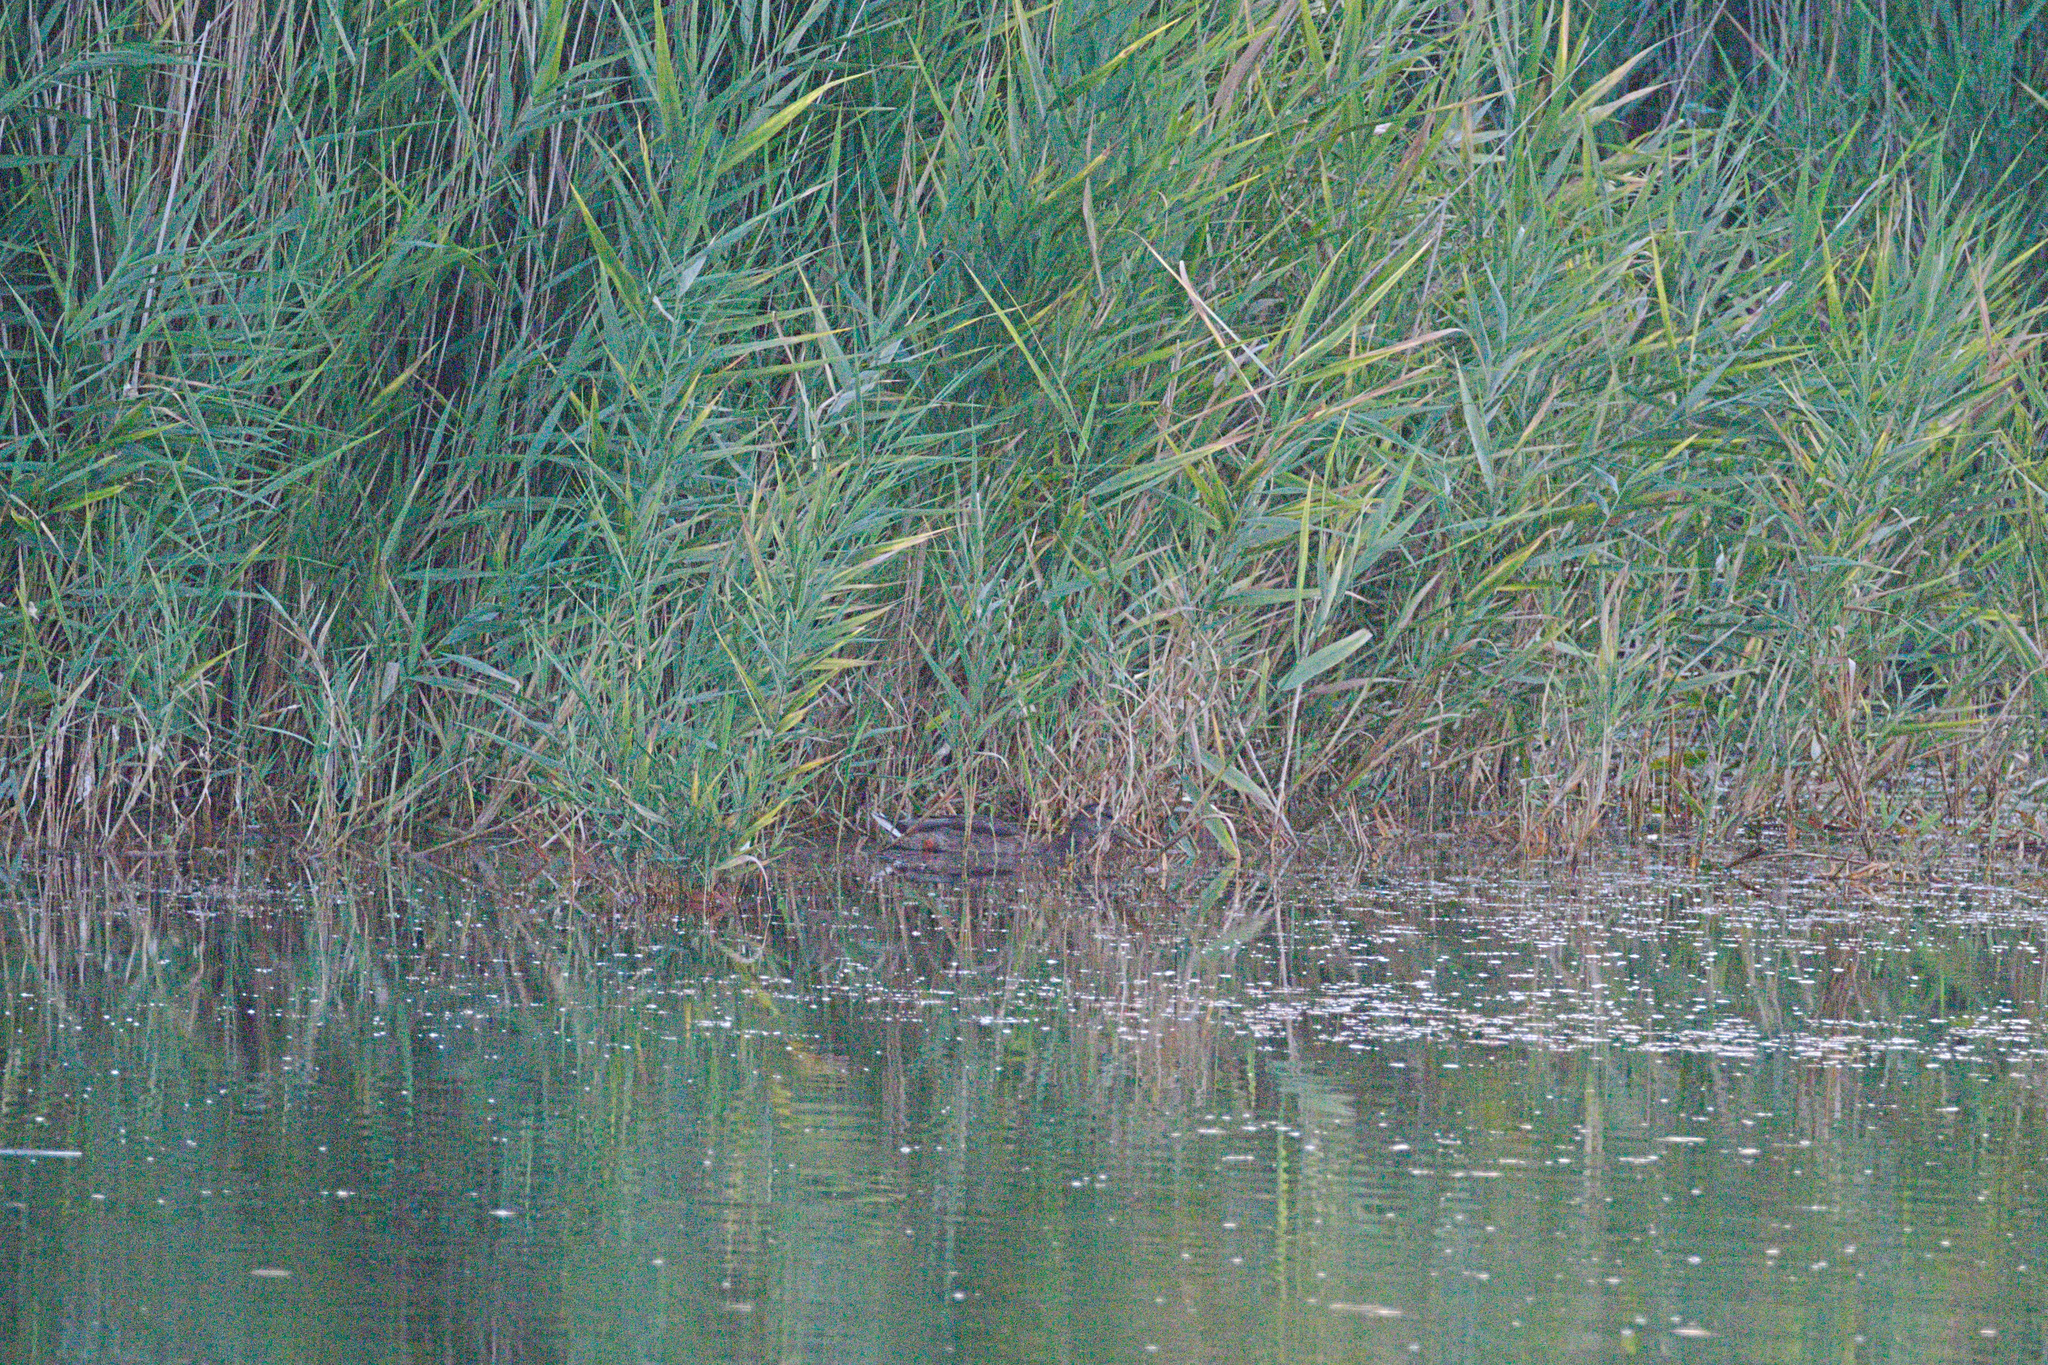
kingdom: Animalia
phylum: Chordata
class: Aves
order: Anseriformes
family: Anatidae
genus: Anas
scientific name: Anas platyrhynchos
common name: Mallard
